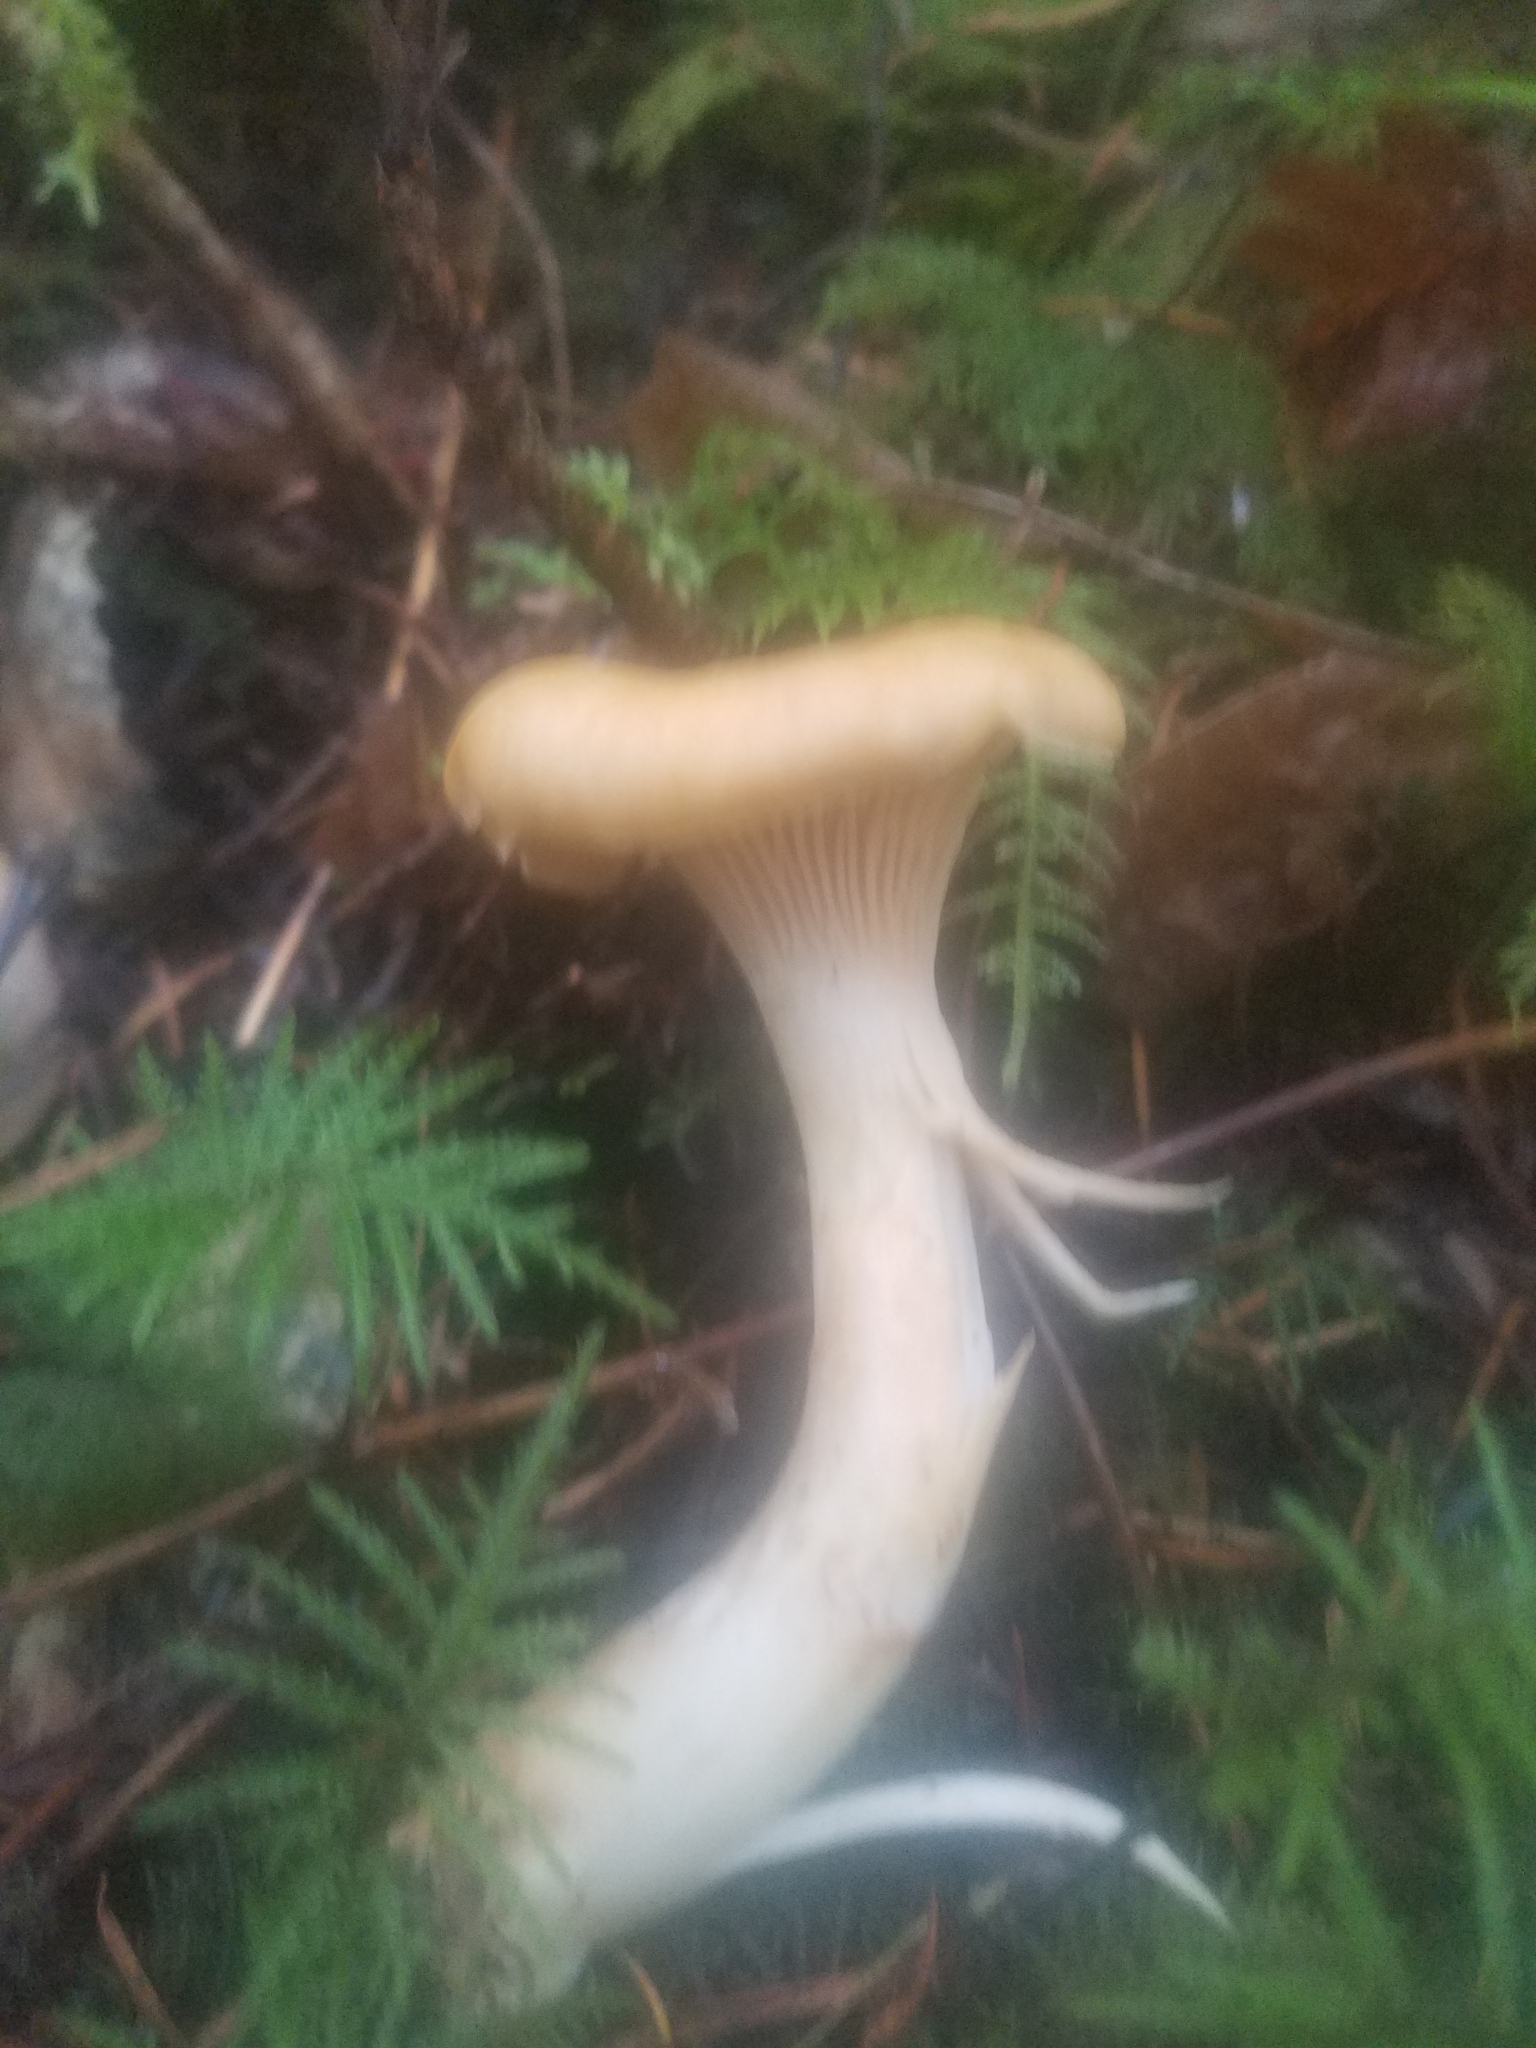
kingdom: Fungi
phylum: Basidiomycota
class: Agaricomycetes
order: Cantharellales
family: Hydnaceae
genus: Cantharellus
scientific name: Cantharellus formosus
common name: Pacific golden chanterelle
